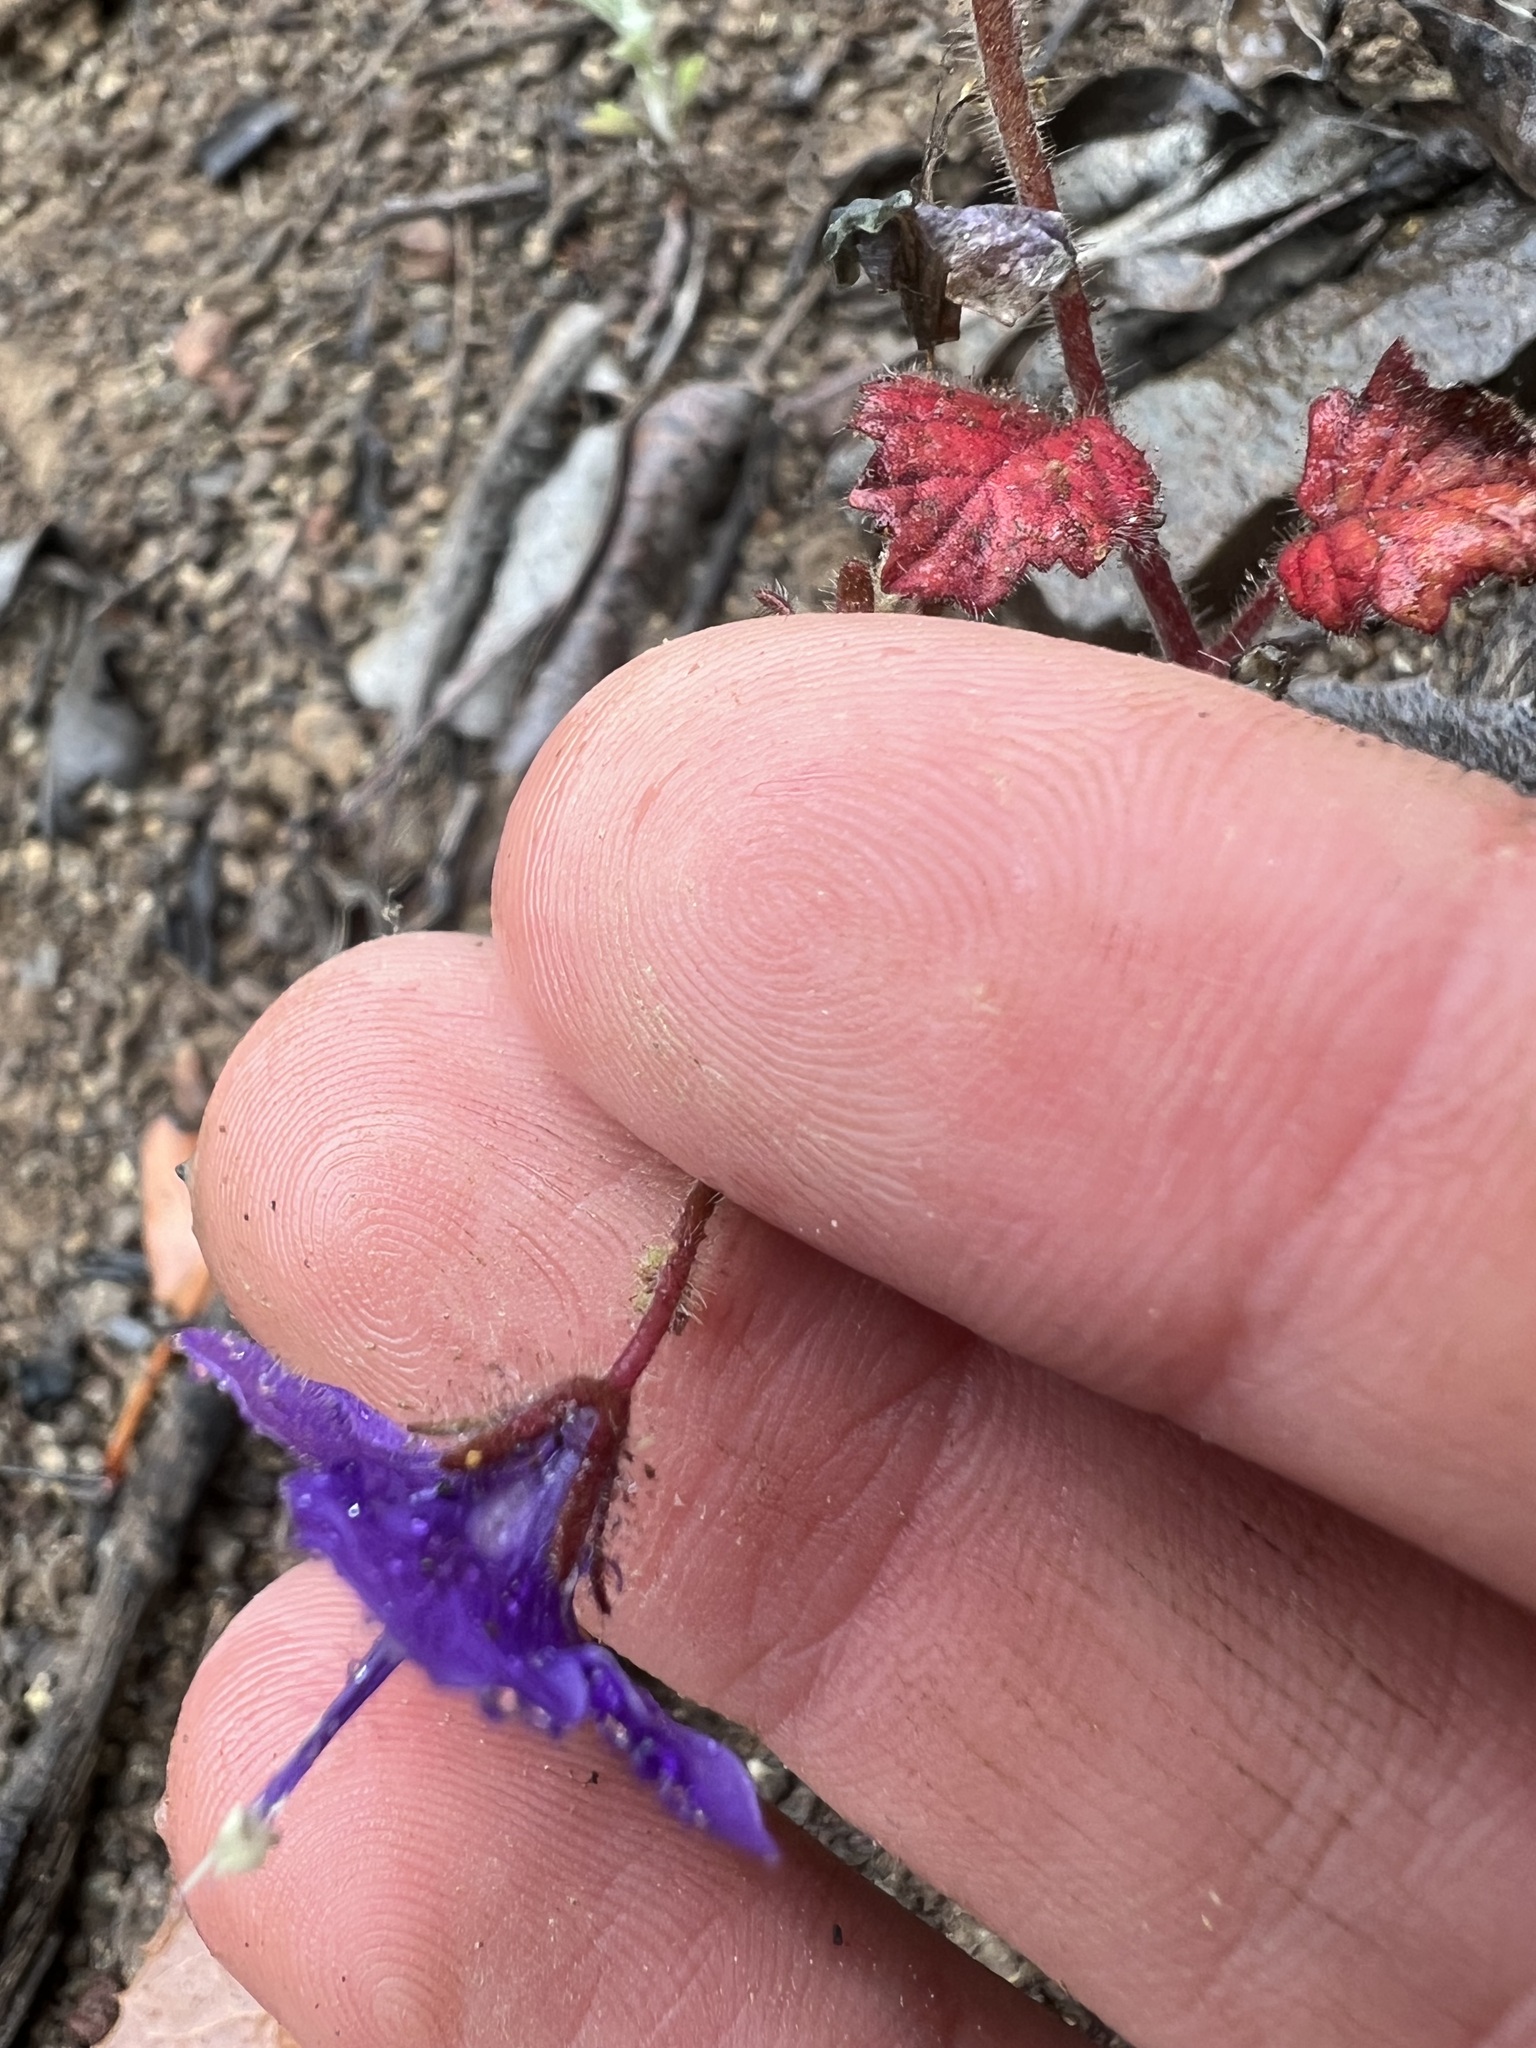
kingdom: Plantae
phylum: Tracheophyta
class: Magnoliopsida
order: Boraginales
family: Hydrophyllaceae
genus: Phacelia
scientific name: Phacelia parryi
